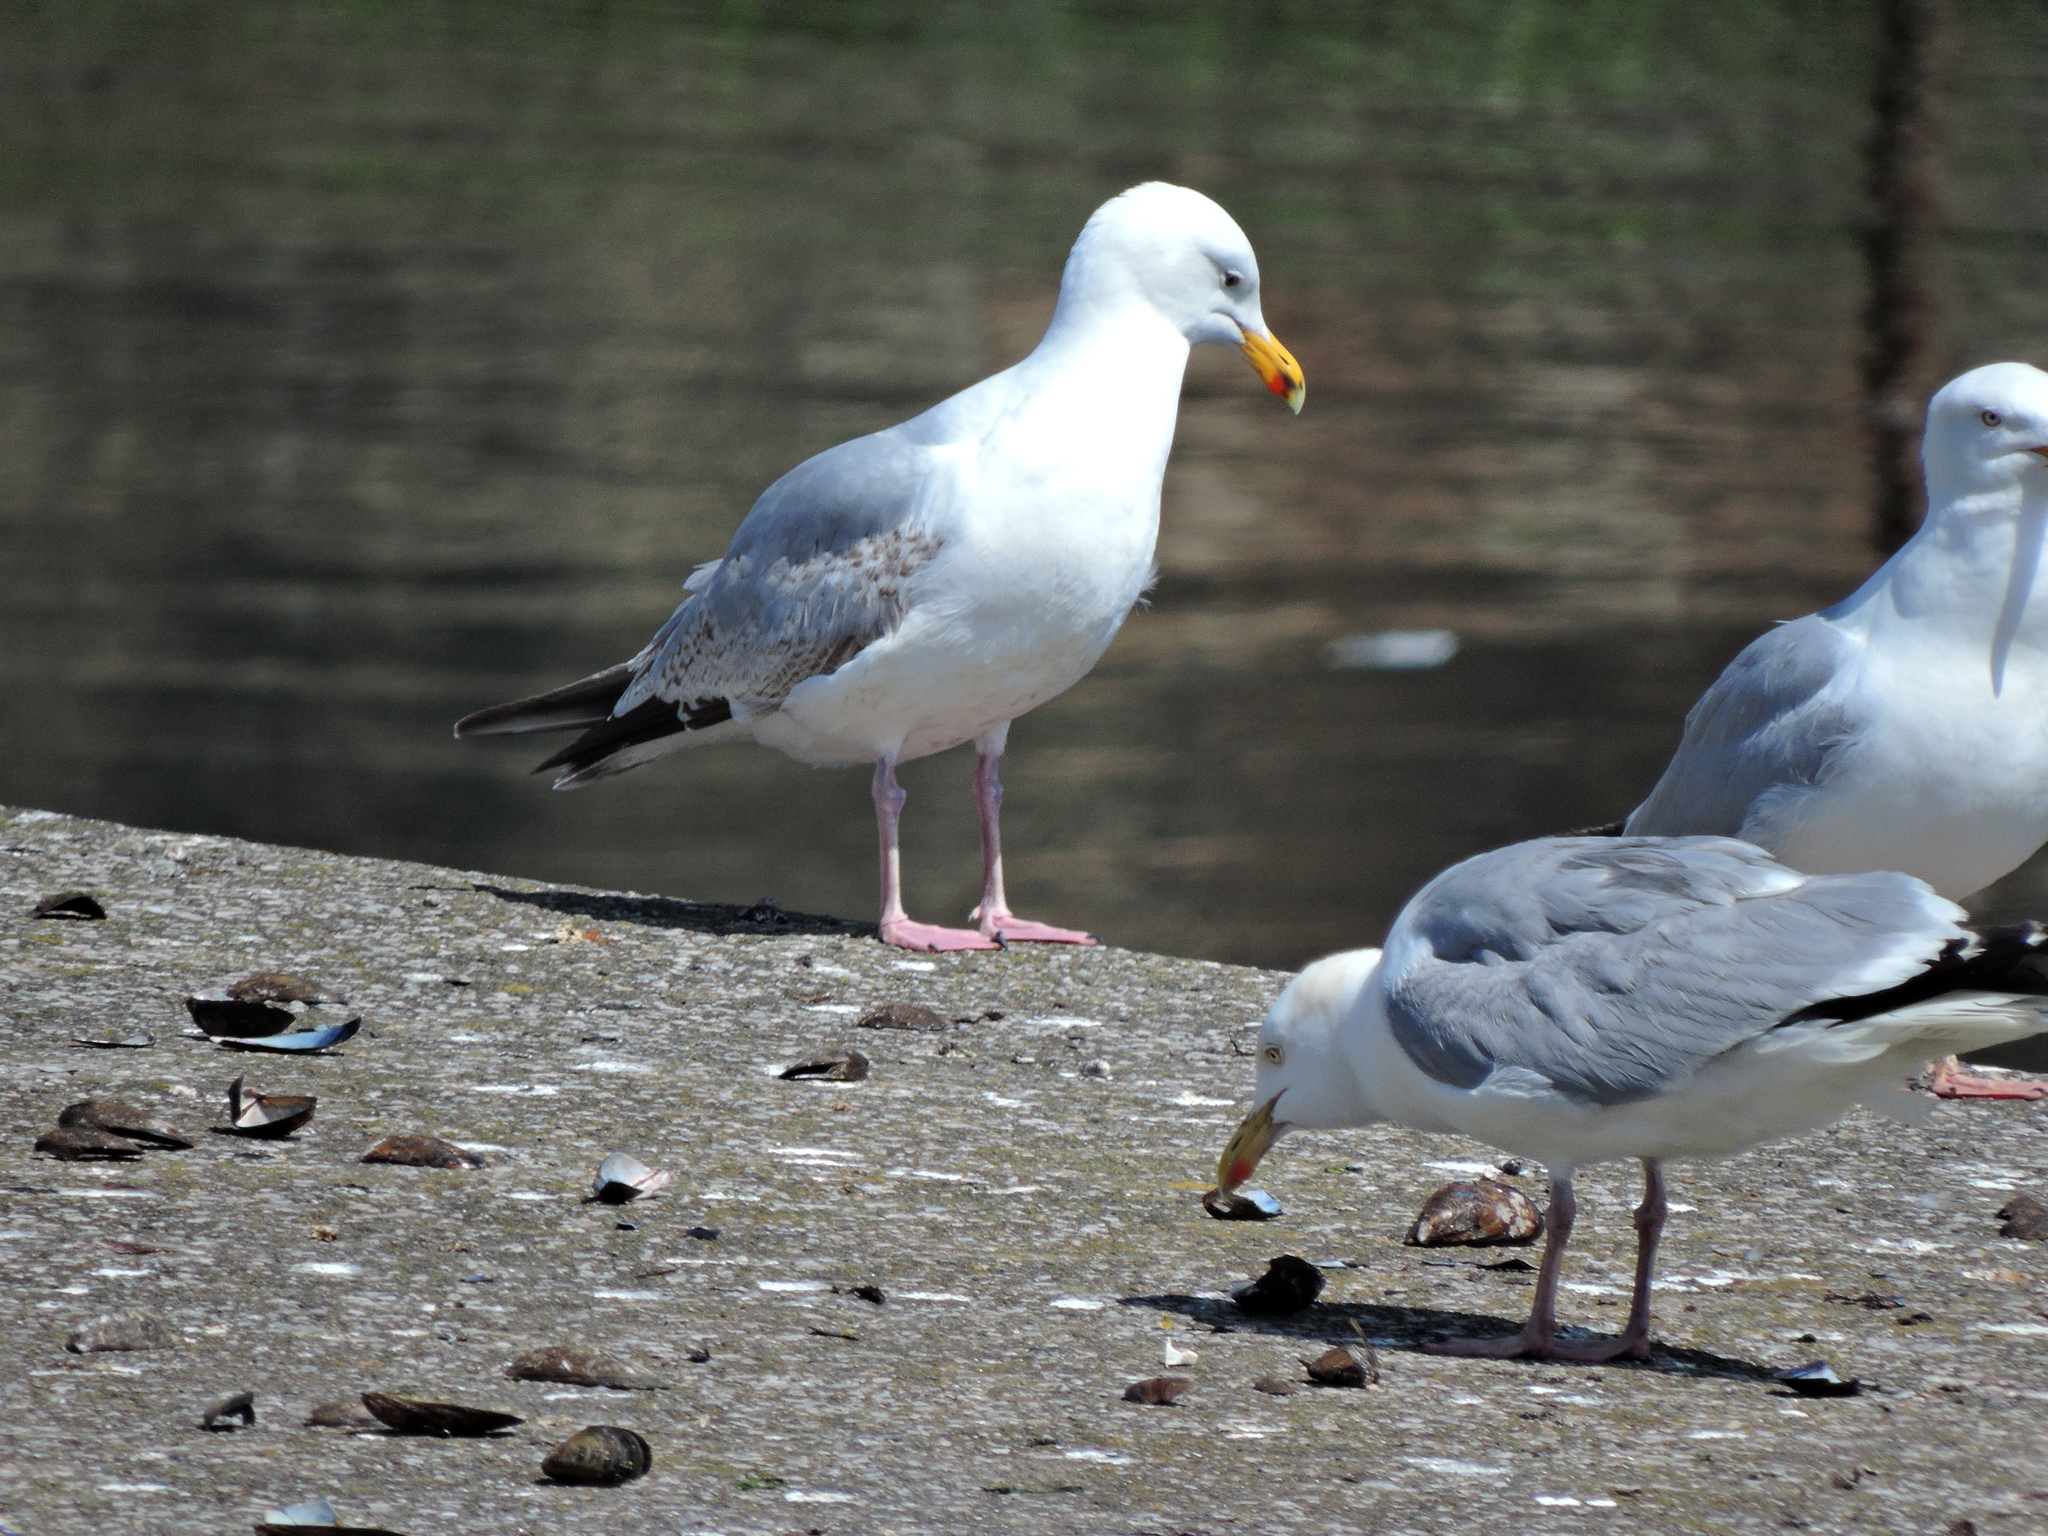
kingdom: Animalia
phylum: Chordata
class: Aves
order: Charadriiformes
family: Laridae
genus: Larus
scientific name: Larus argentatus
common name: Herring gull
